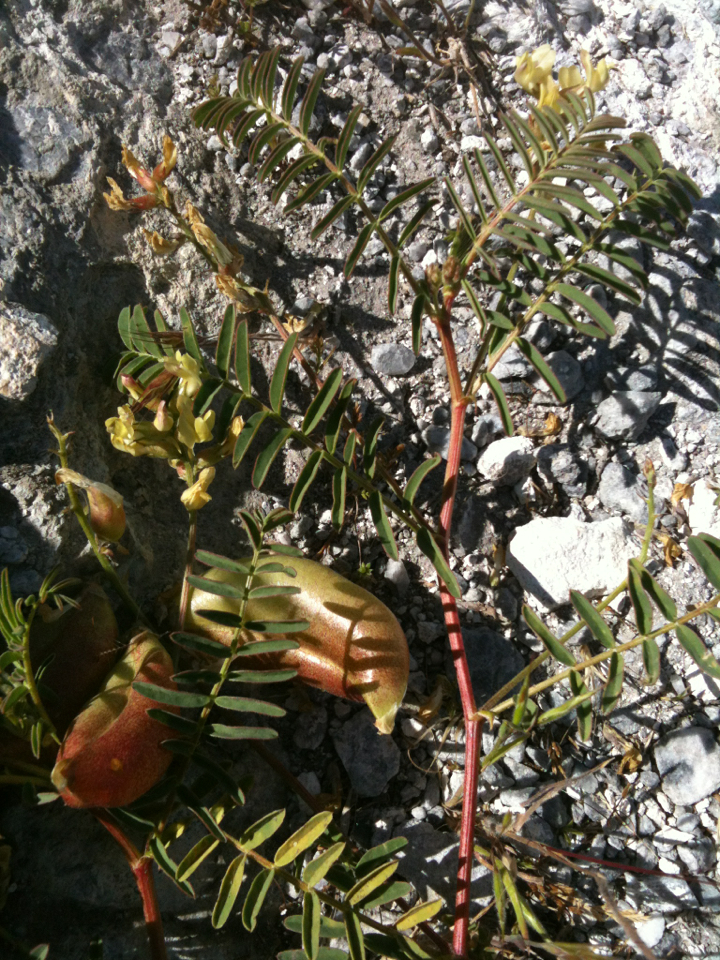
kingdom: Plantae
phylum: Tracheophyta
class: Magnoliopsida
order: Fabales
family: Fabaceae
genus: Astragalus
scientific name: Astragalus douglasii
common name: Jacumba milkvetch
